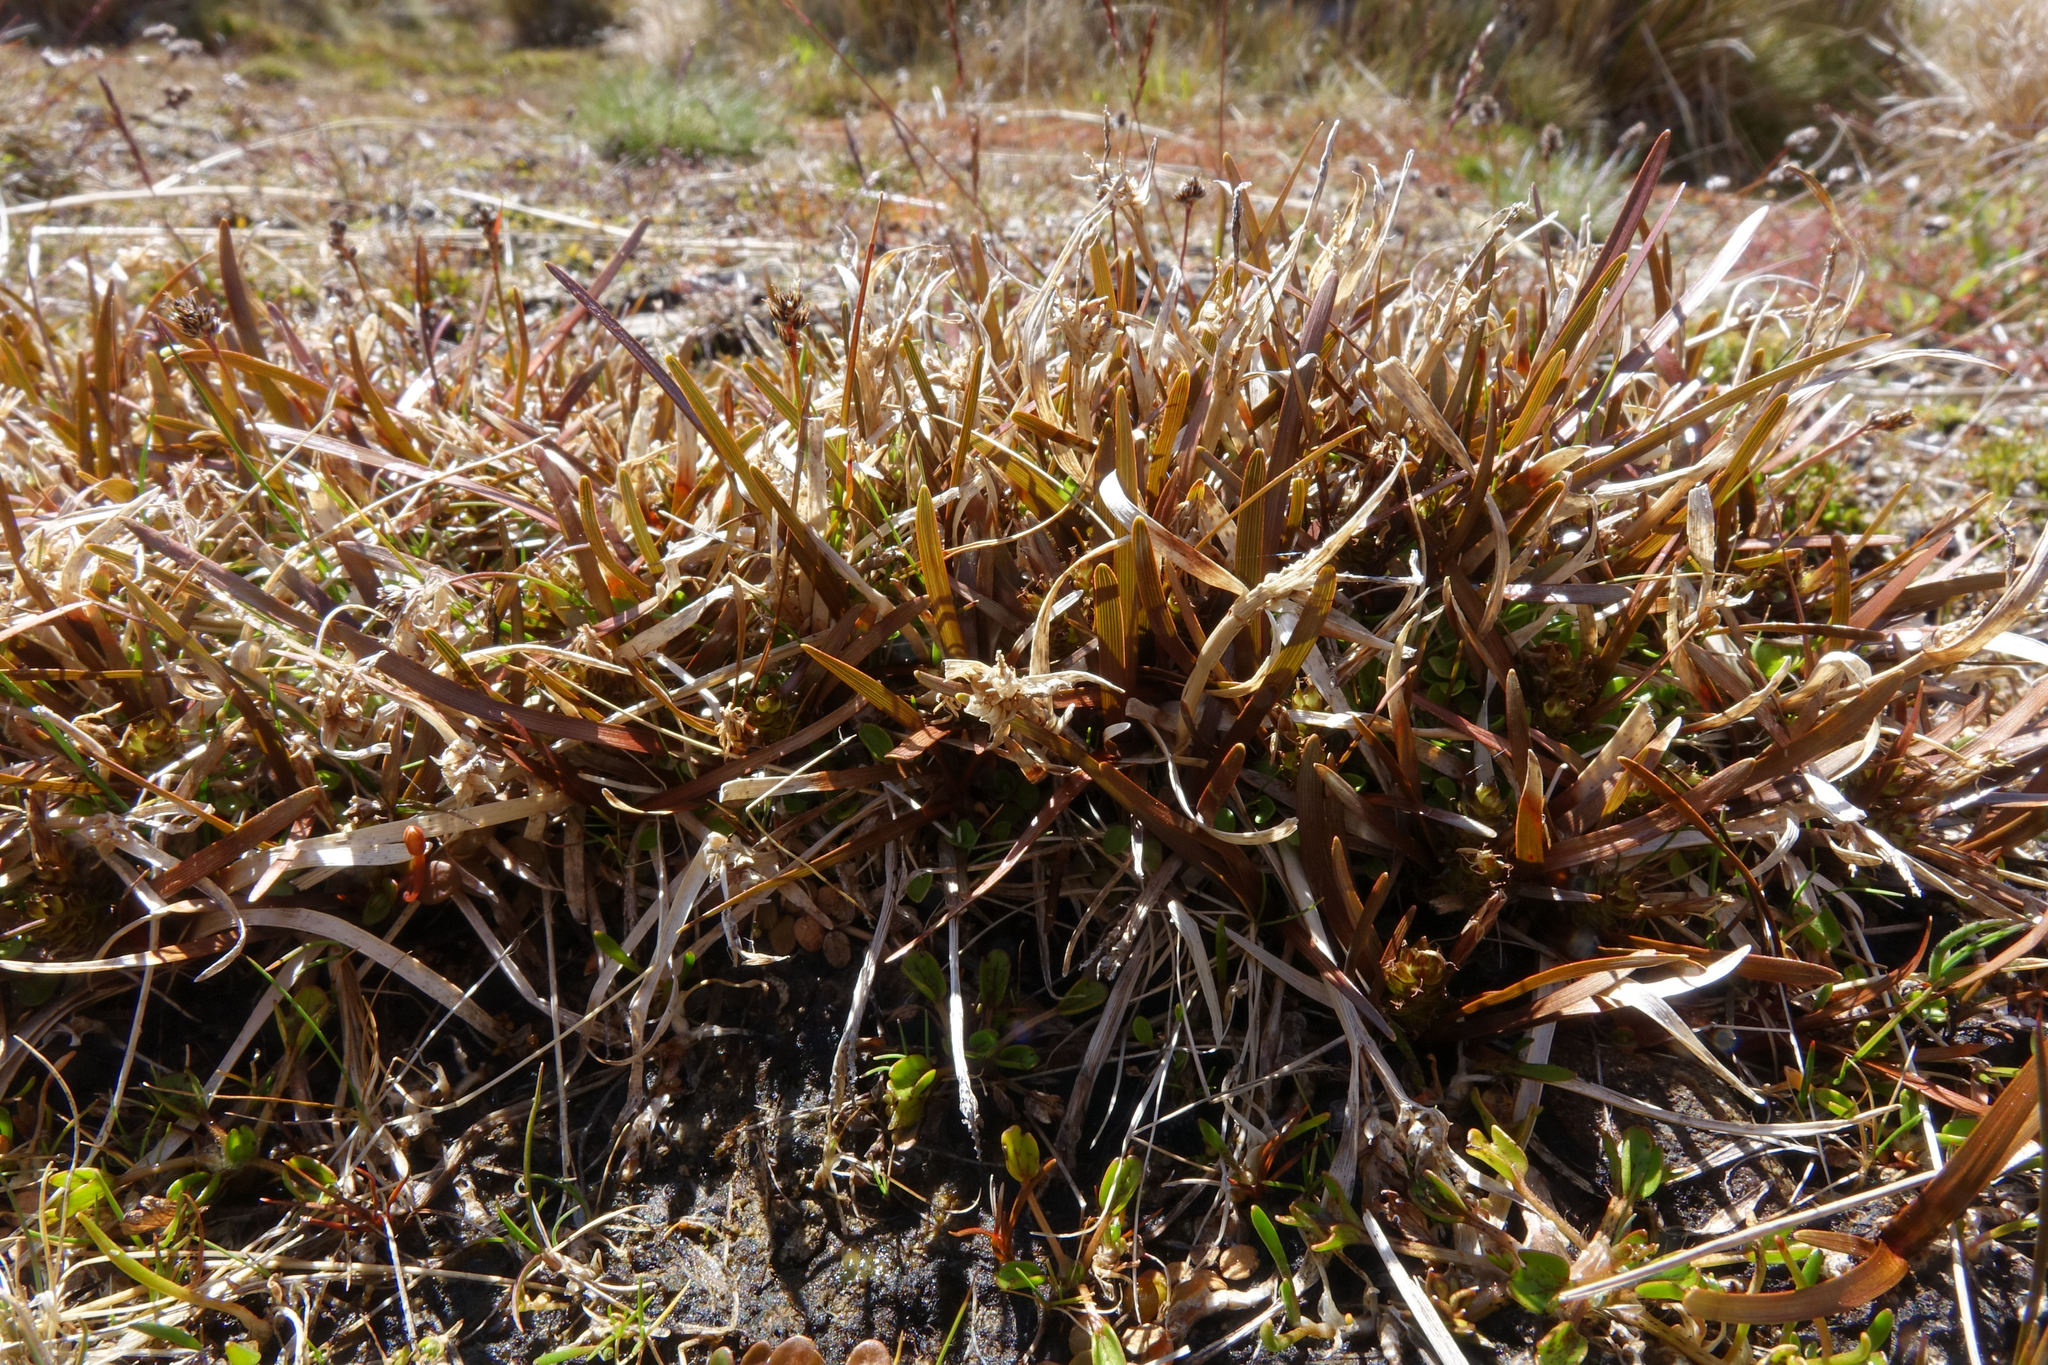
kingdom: Plantae
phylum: Tracheophyta
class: Liliopsida
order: Poales
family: Cyperaceae
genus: Carex
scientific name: Carex talbotii
